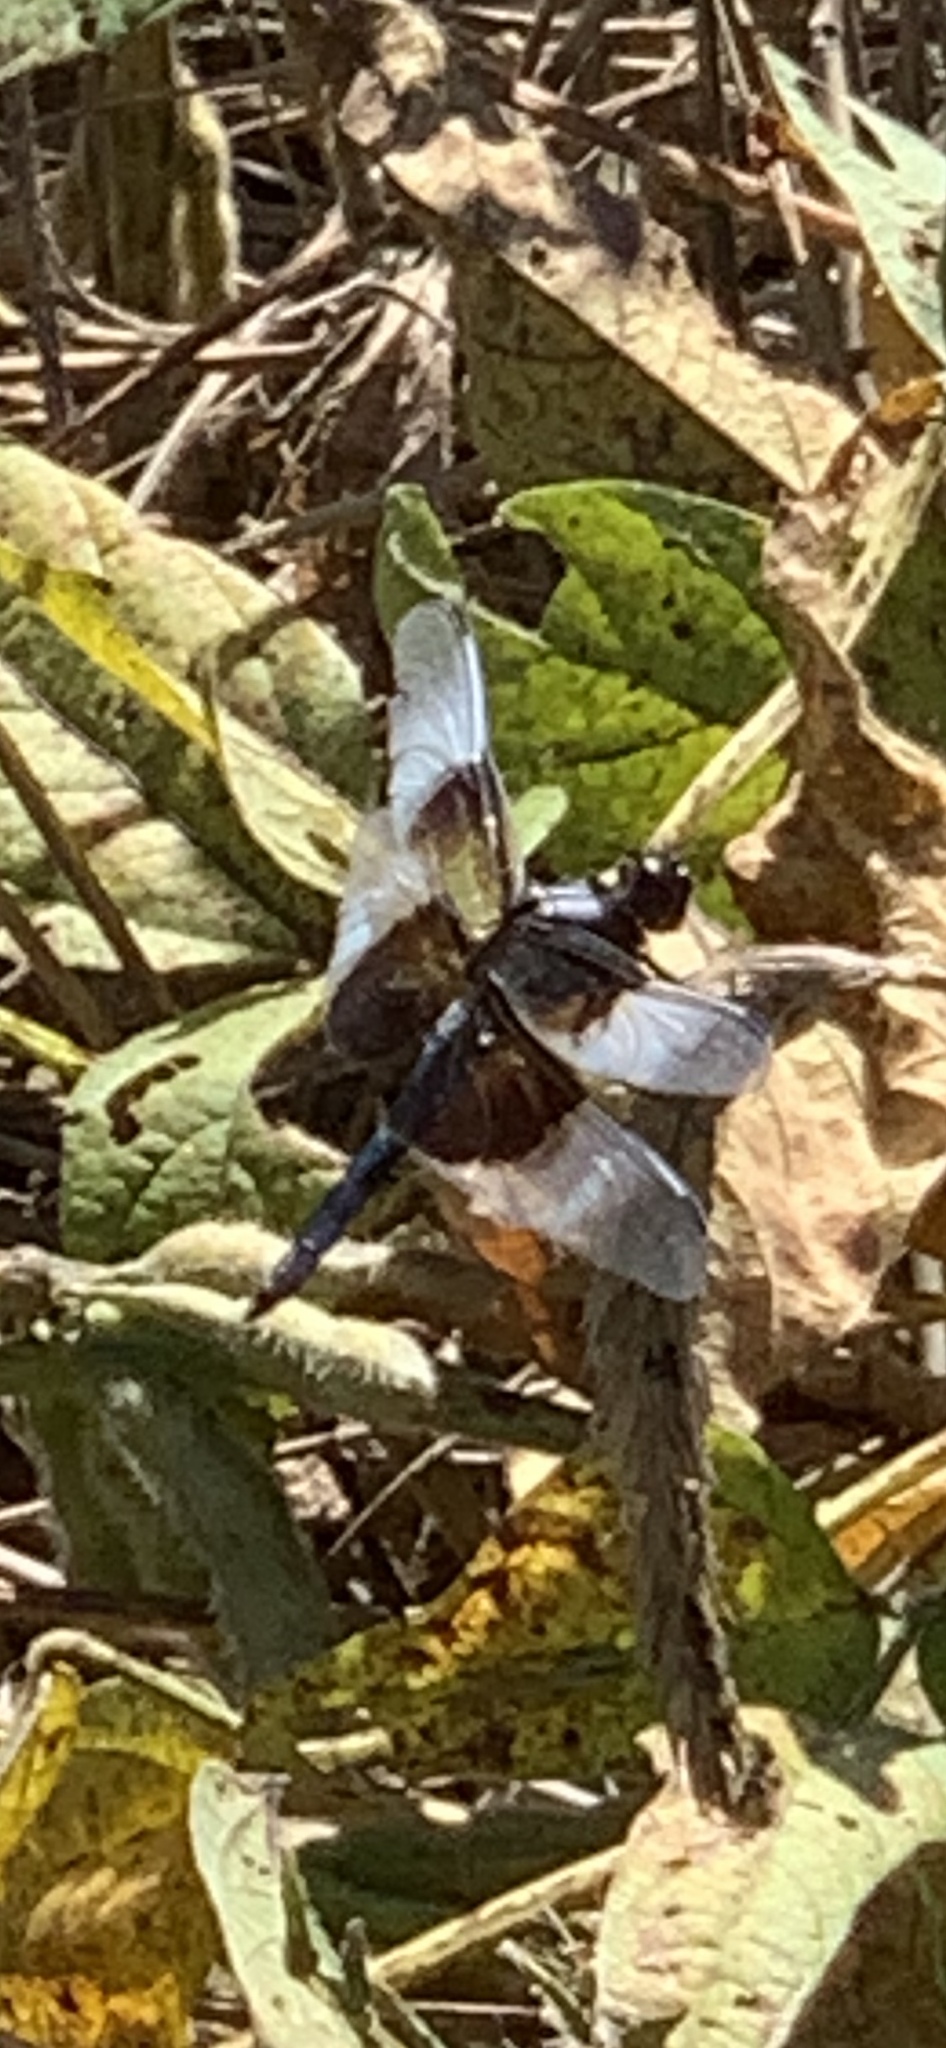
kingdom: Animalia
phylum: Arthropoda
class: Insecta
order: Odonata
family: Libellulidae
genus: Libellula
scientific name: Libellula luctuosa
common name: Widow skimmer
